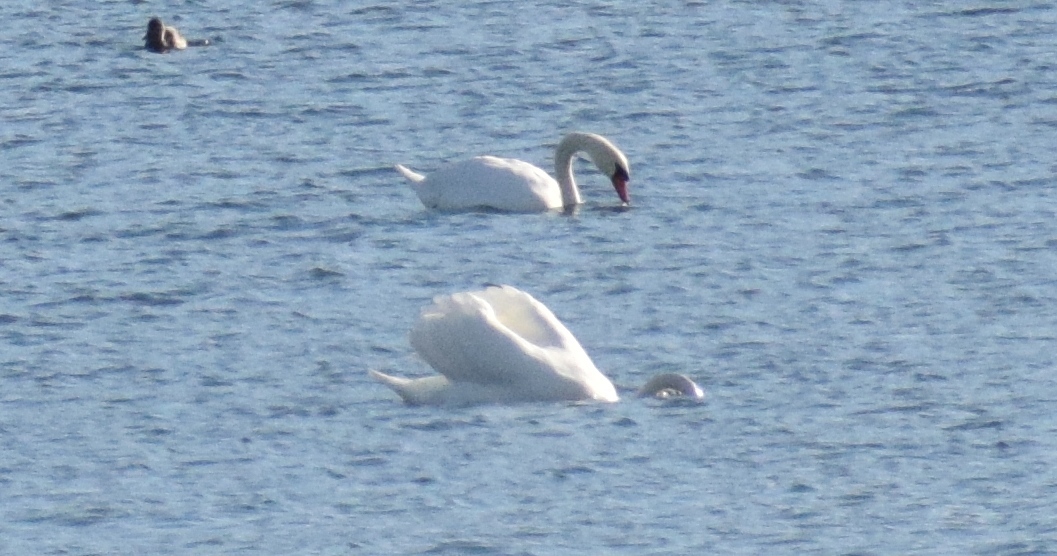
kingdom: Animalia
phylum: Chordata
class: Aves
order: Anseriformes
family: Anatidae
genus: Cygnus
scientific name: Cygnus olor
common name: Mute swan
